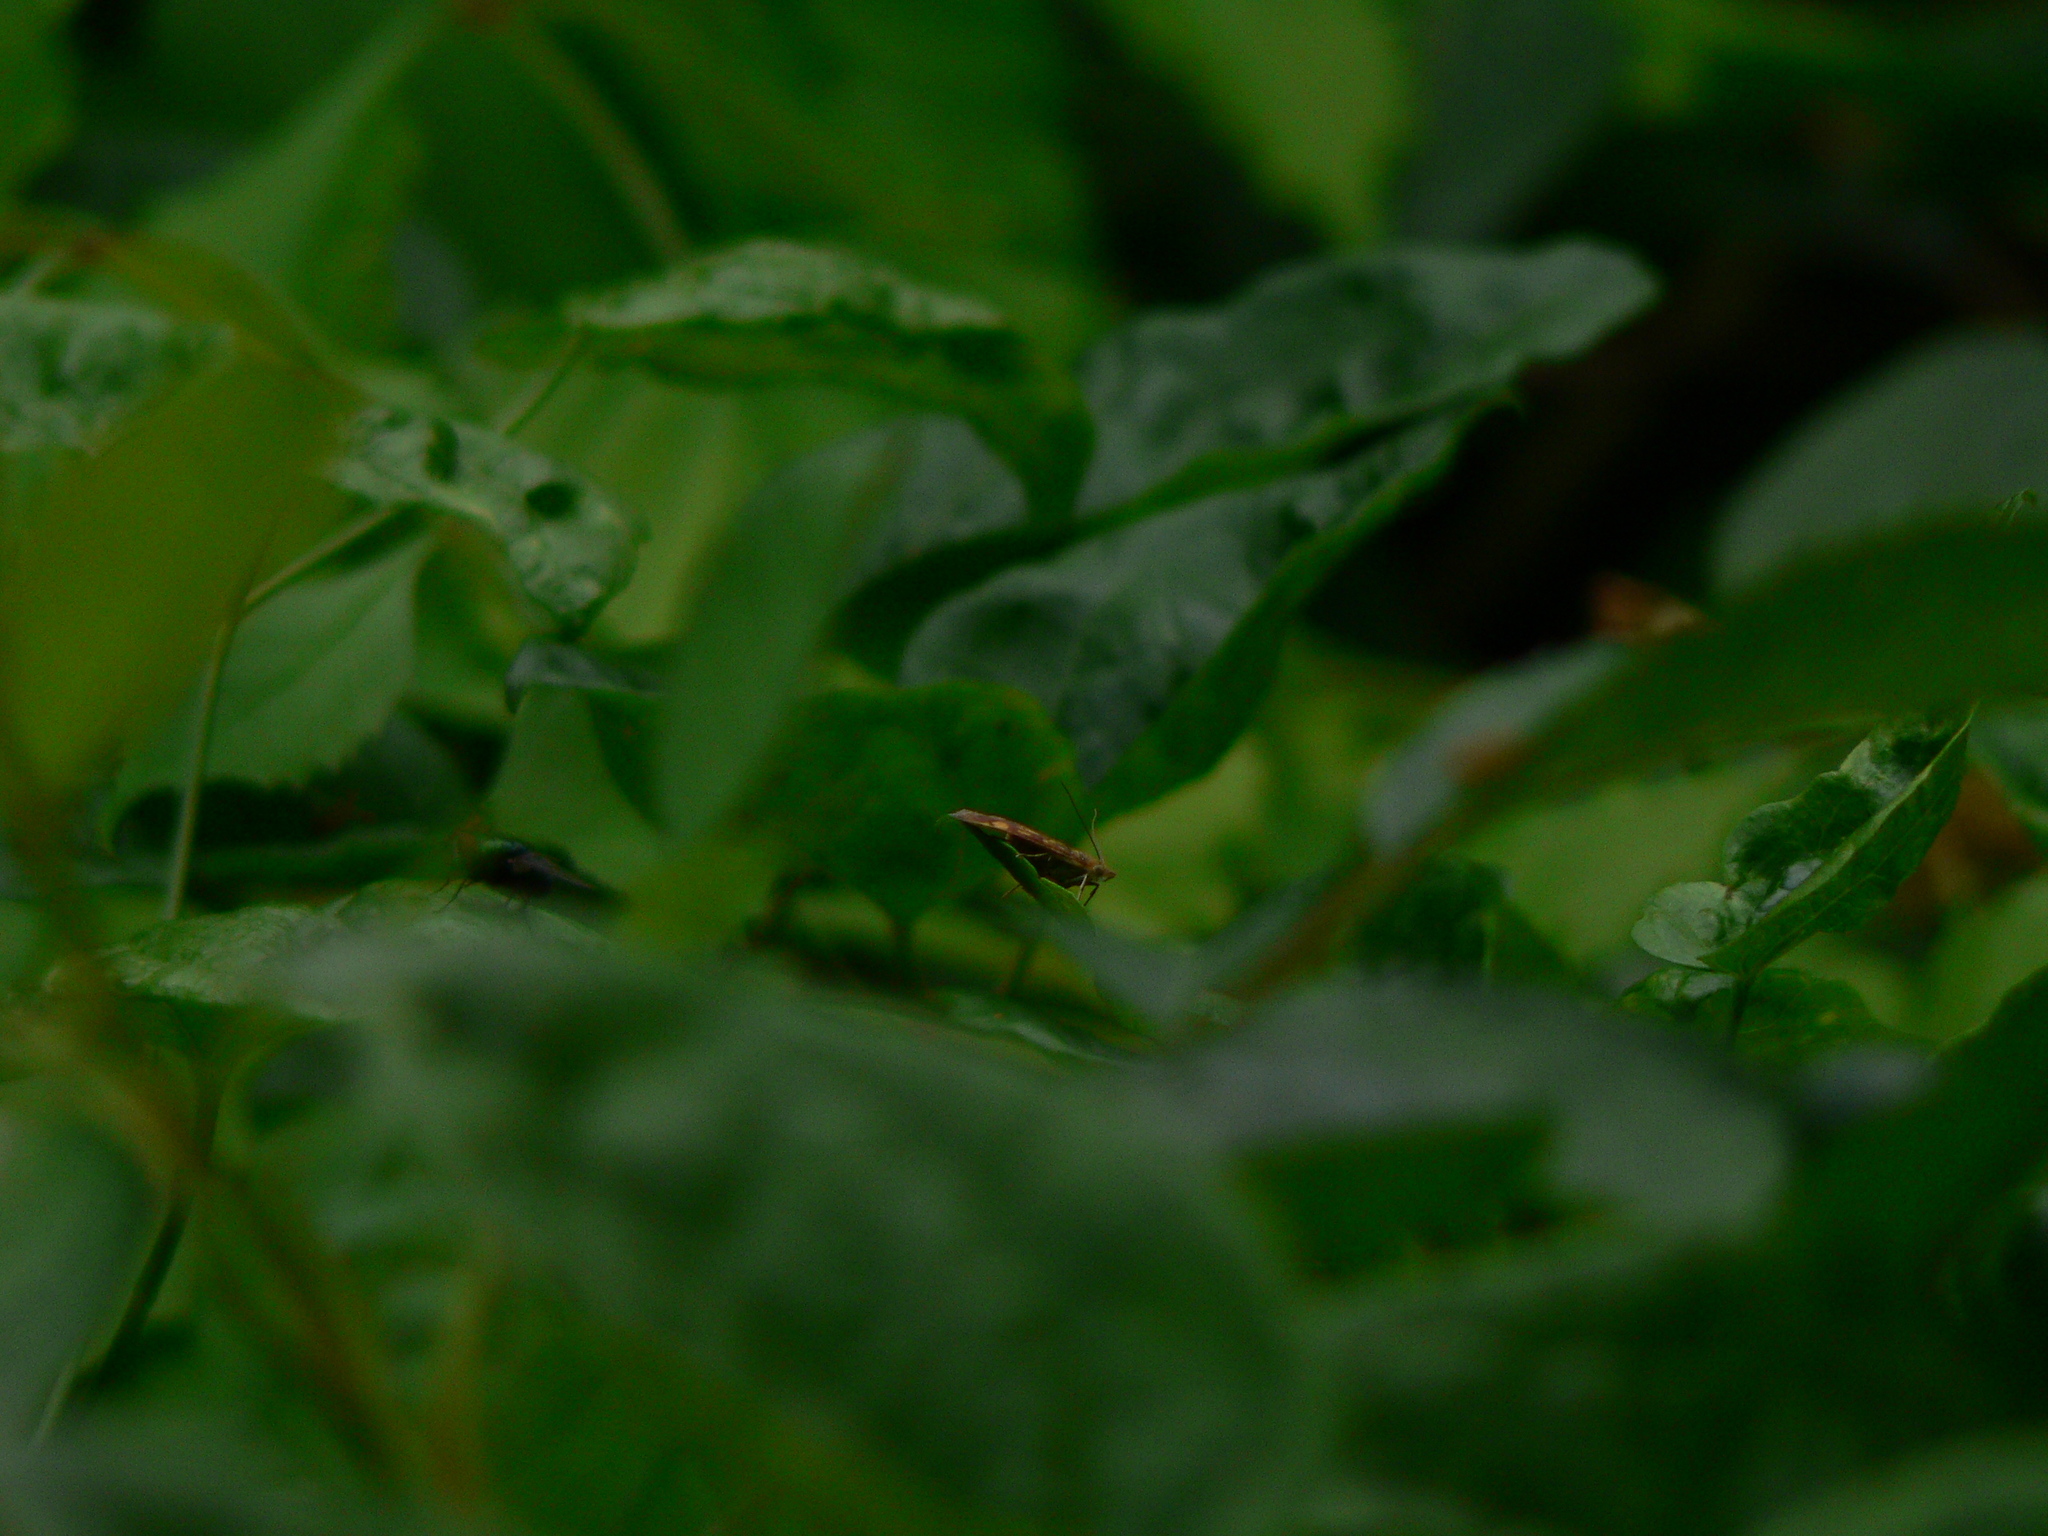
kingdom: Animalia
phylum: Arthropoda
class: Insecta
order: Lepidoptera
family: Crambidae
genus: Pyrausta
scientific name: Pyrausta aurata
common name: Small purple & gold
